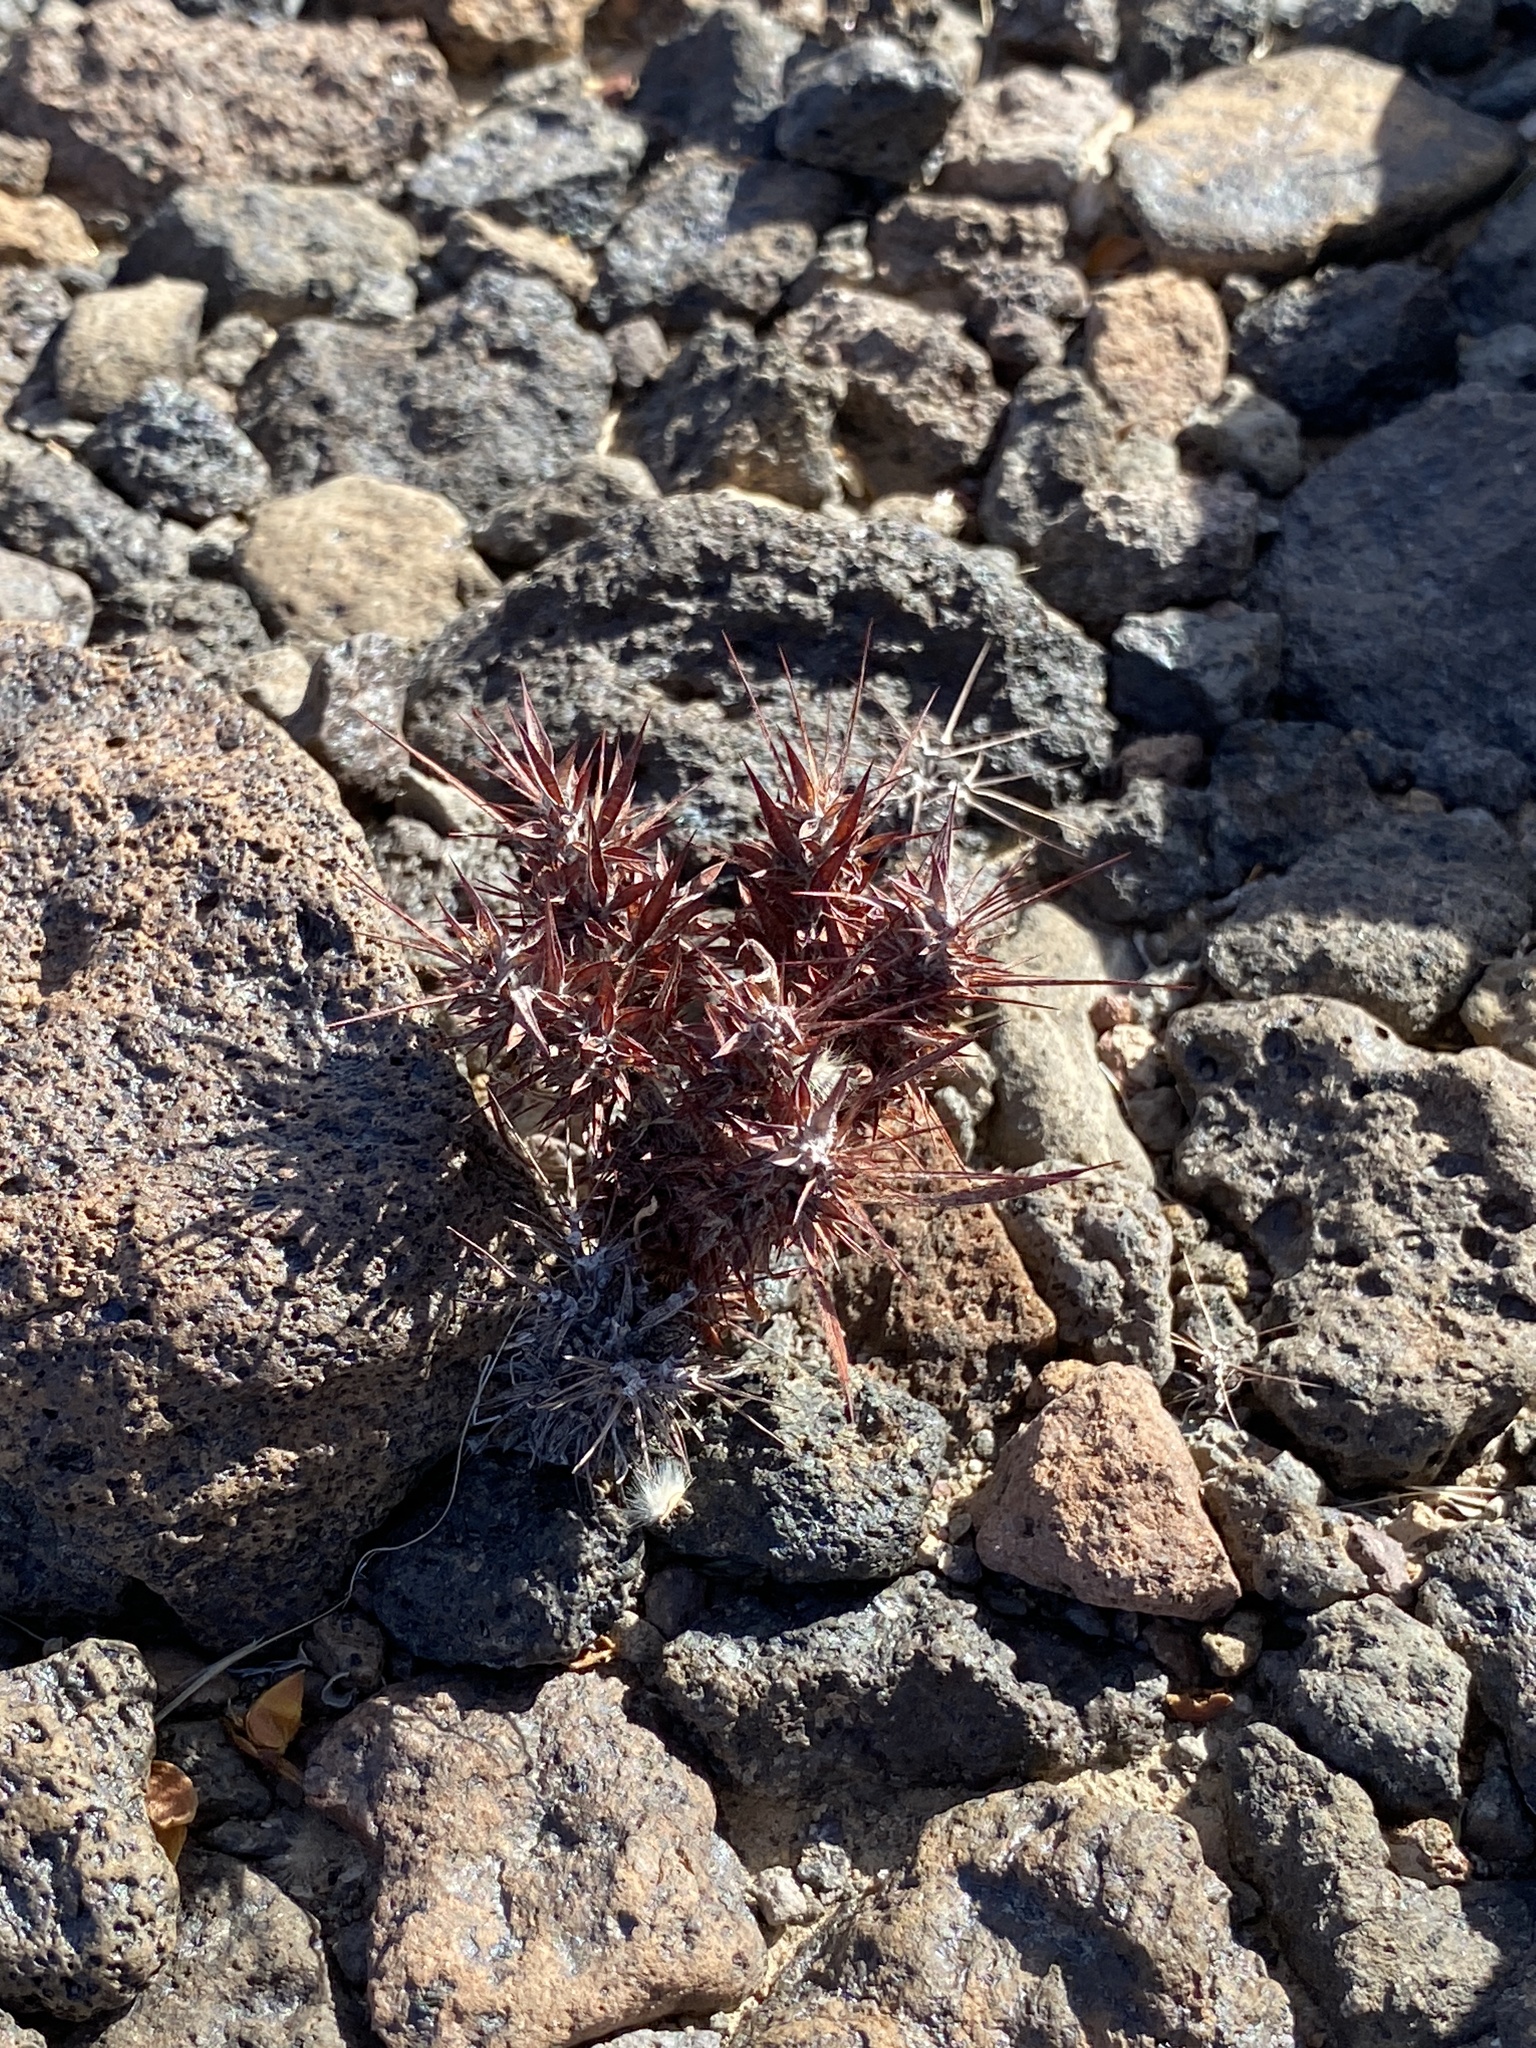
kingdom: Plantae
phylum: Tracheophyta
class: Magnoliopsida
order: Caryophyllales
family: Polygonaceae
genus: Chorizanthe
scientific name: Chorizanthe rigida
